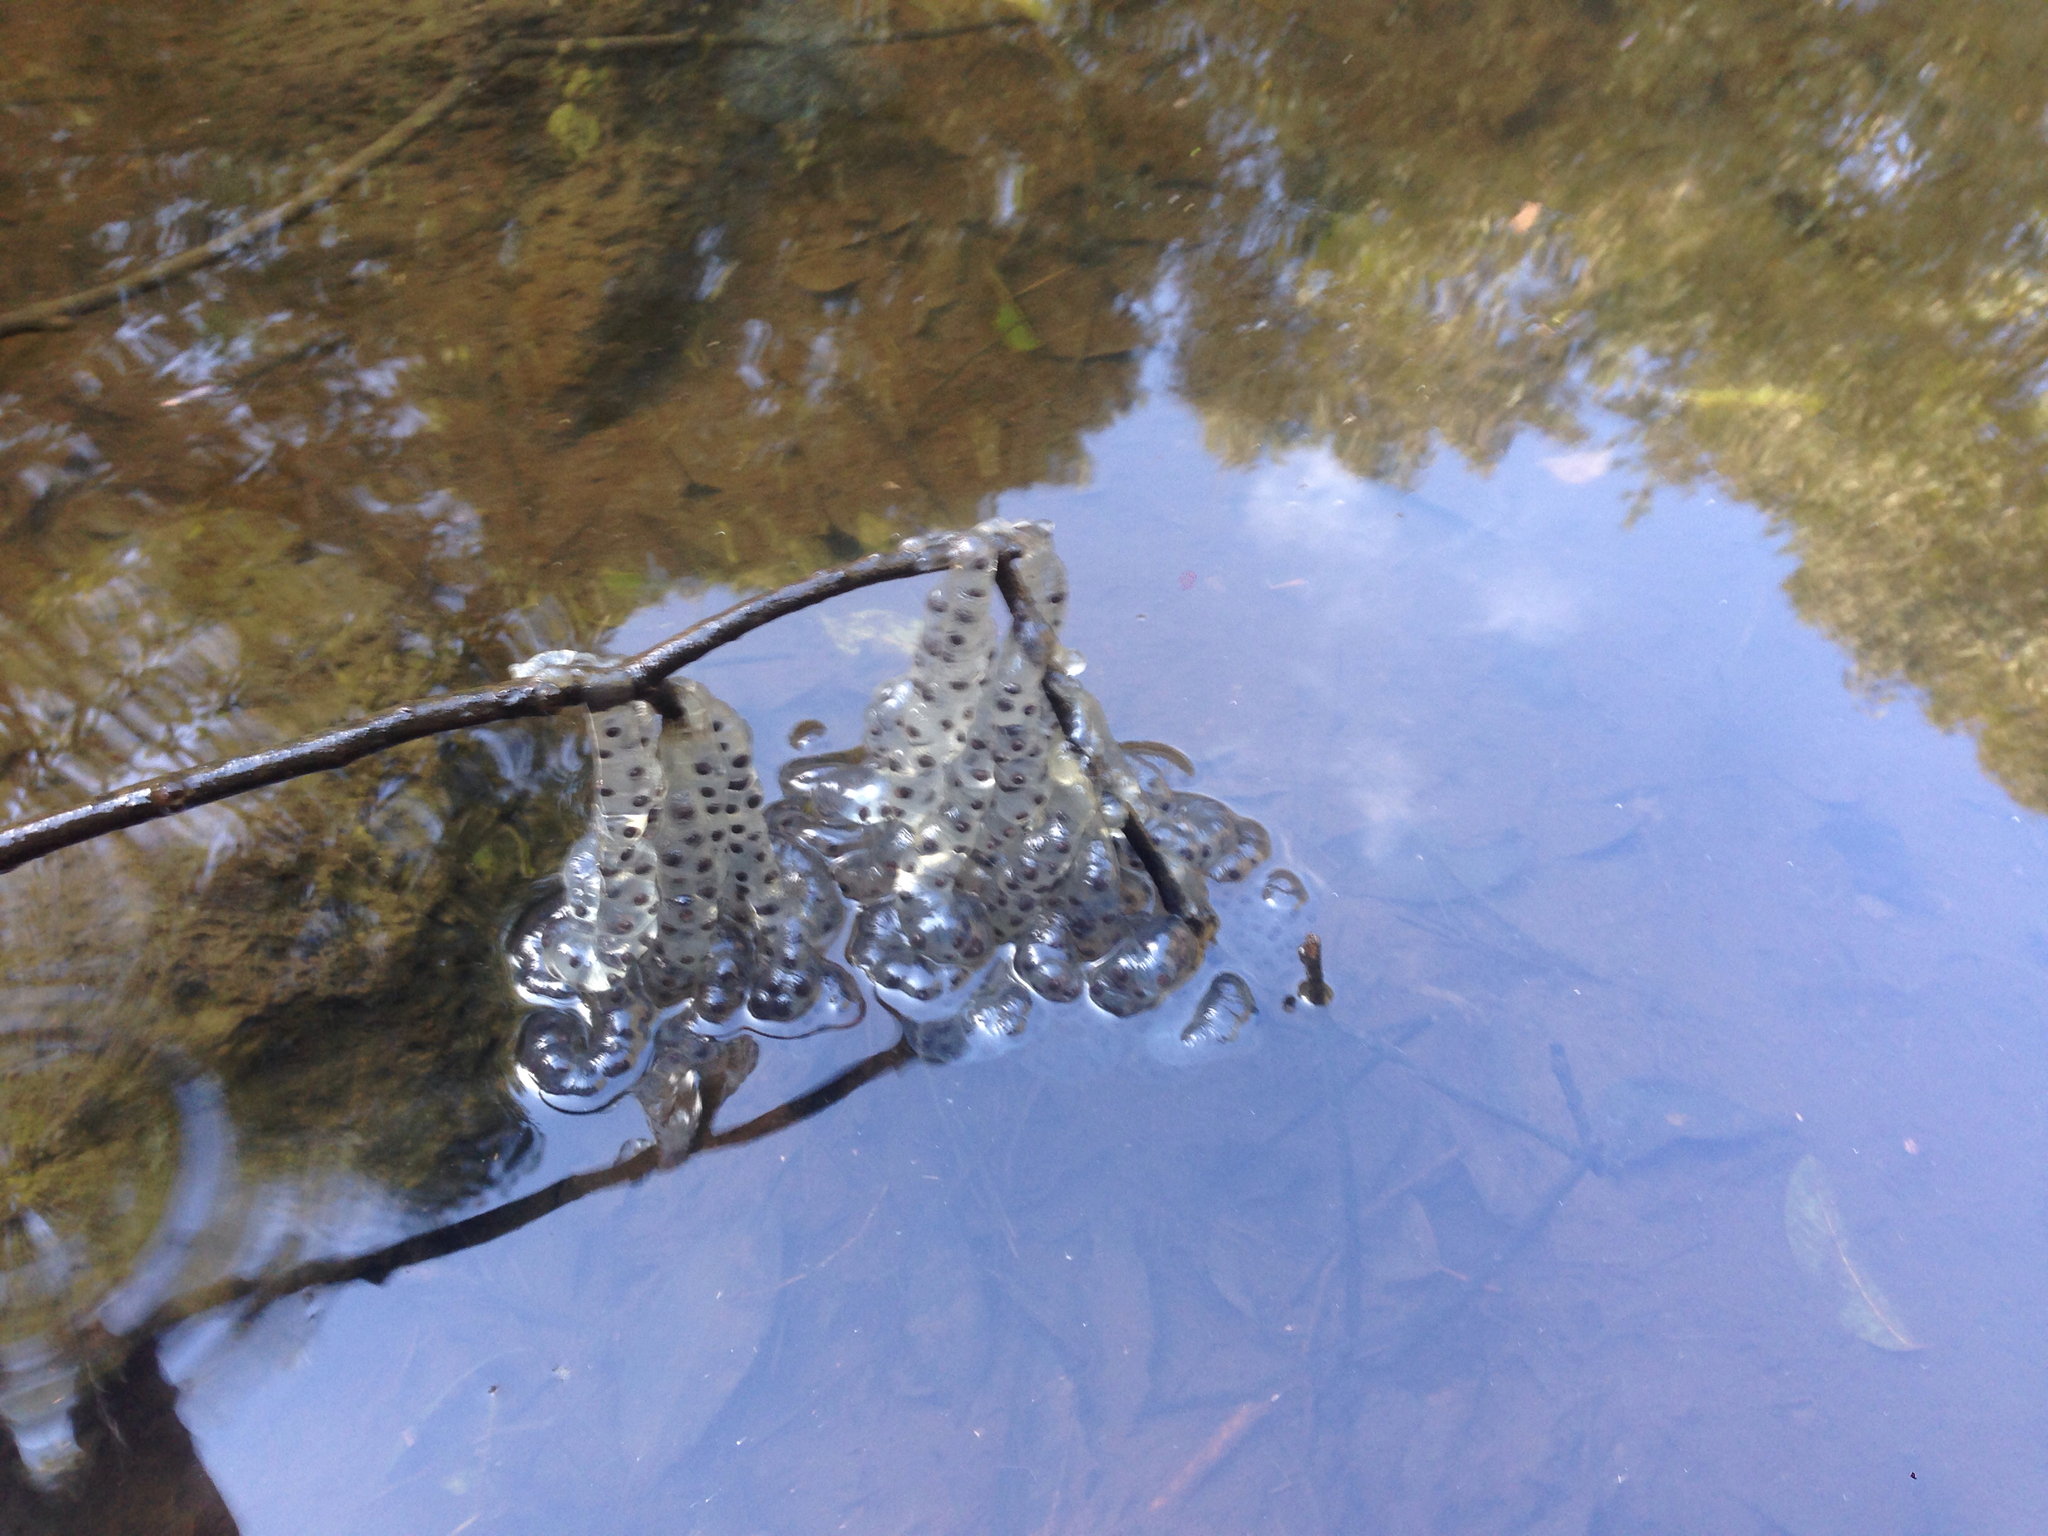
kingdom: Animalia
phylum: Chordata
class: Amphibia
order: Caudata
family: Hynobiidae
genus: Hynobius
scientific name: Hynobius quelpaertensis
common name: Cheju salamander
